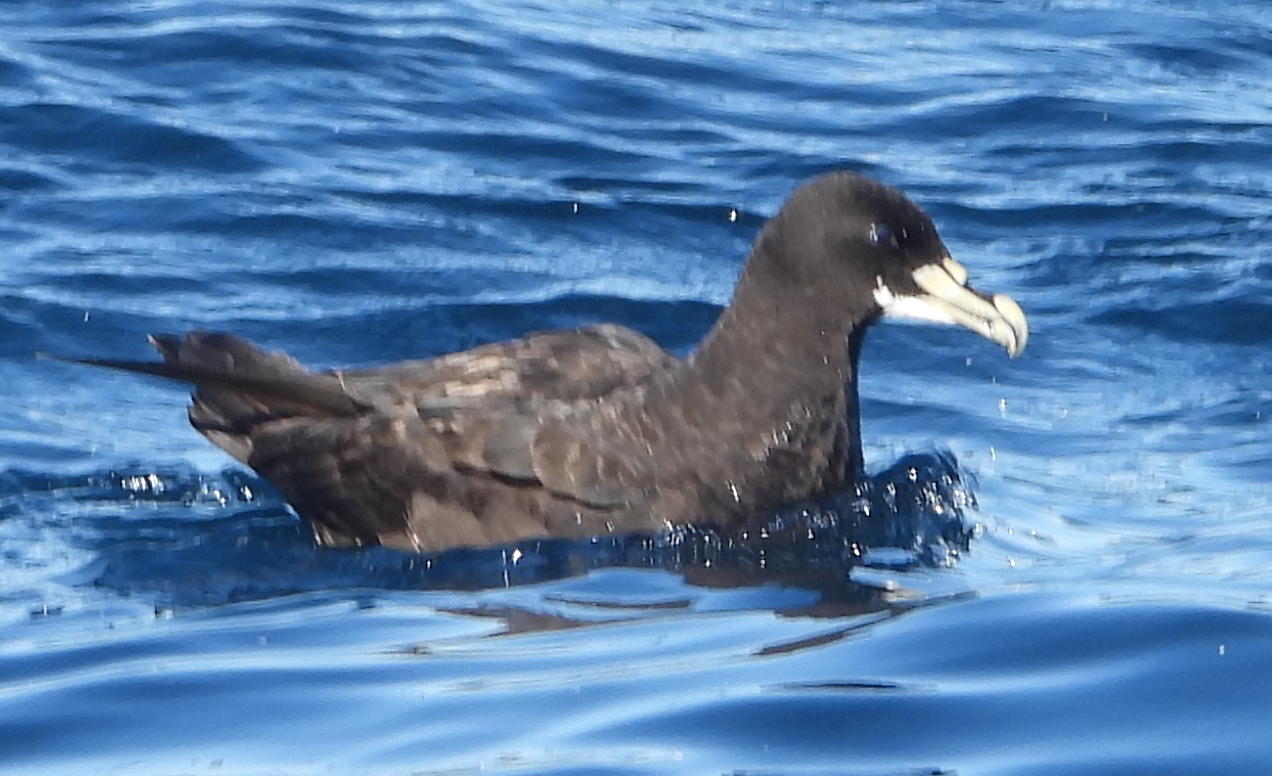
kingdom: Animalia
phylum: Chordata
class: Aves
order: Procellariiformes
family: Procellariidae
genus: Procellaria
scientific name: Procellaria aequinoctialis
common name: White-chinned petrel
